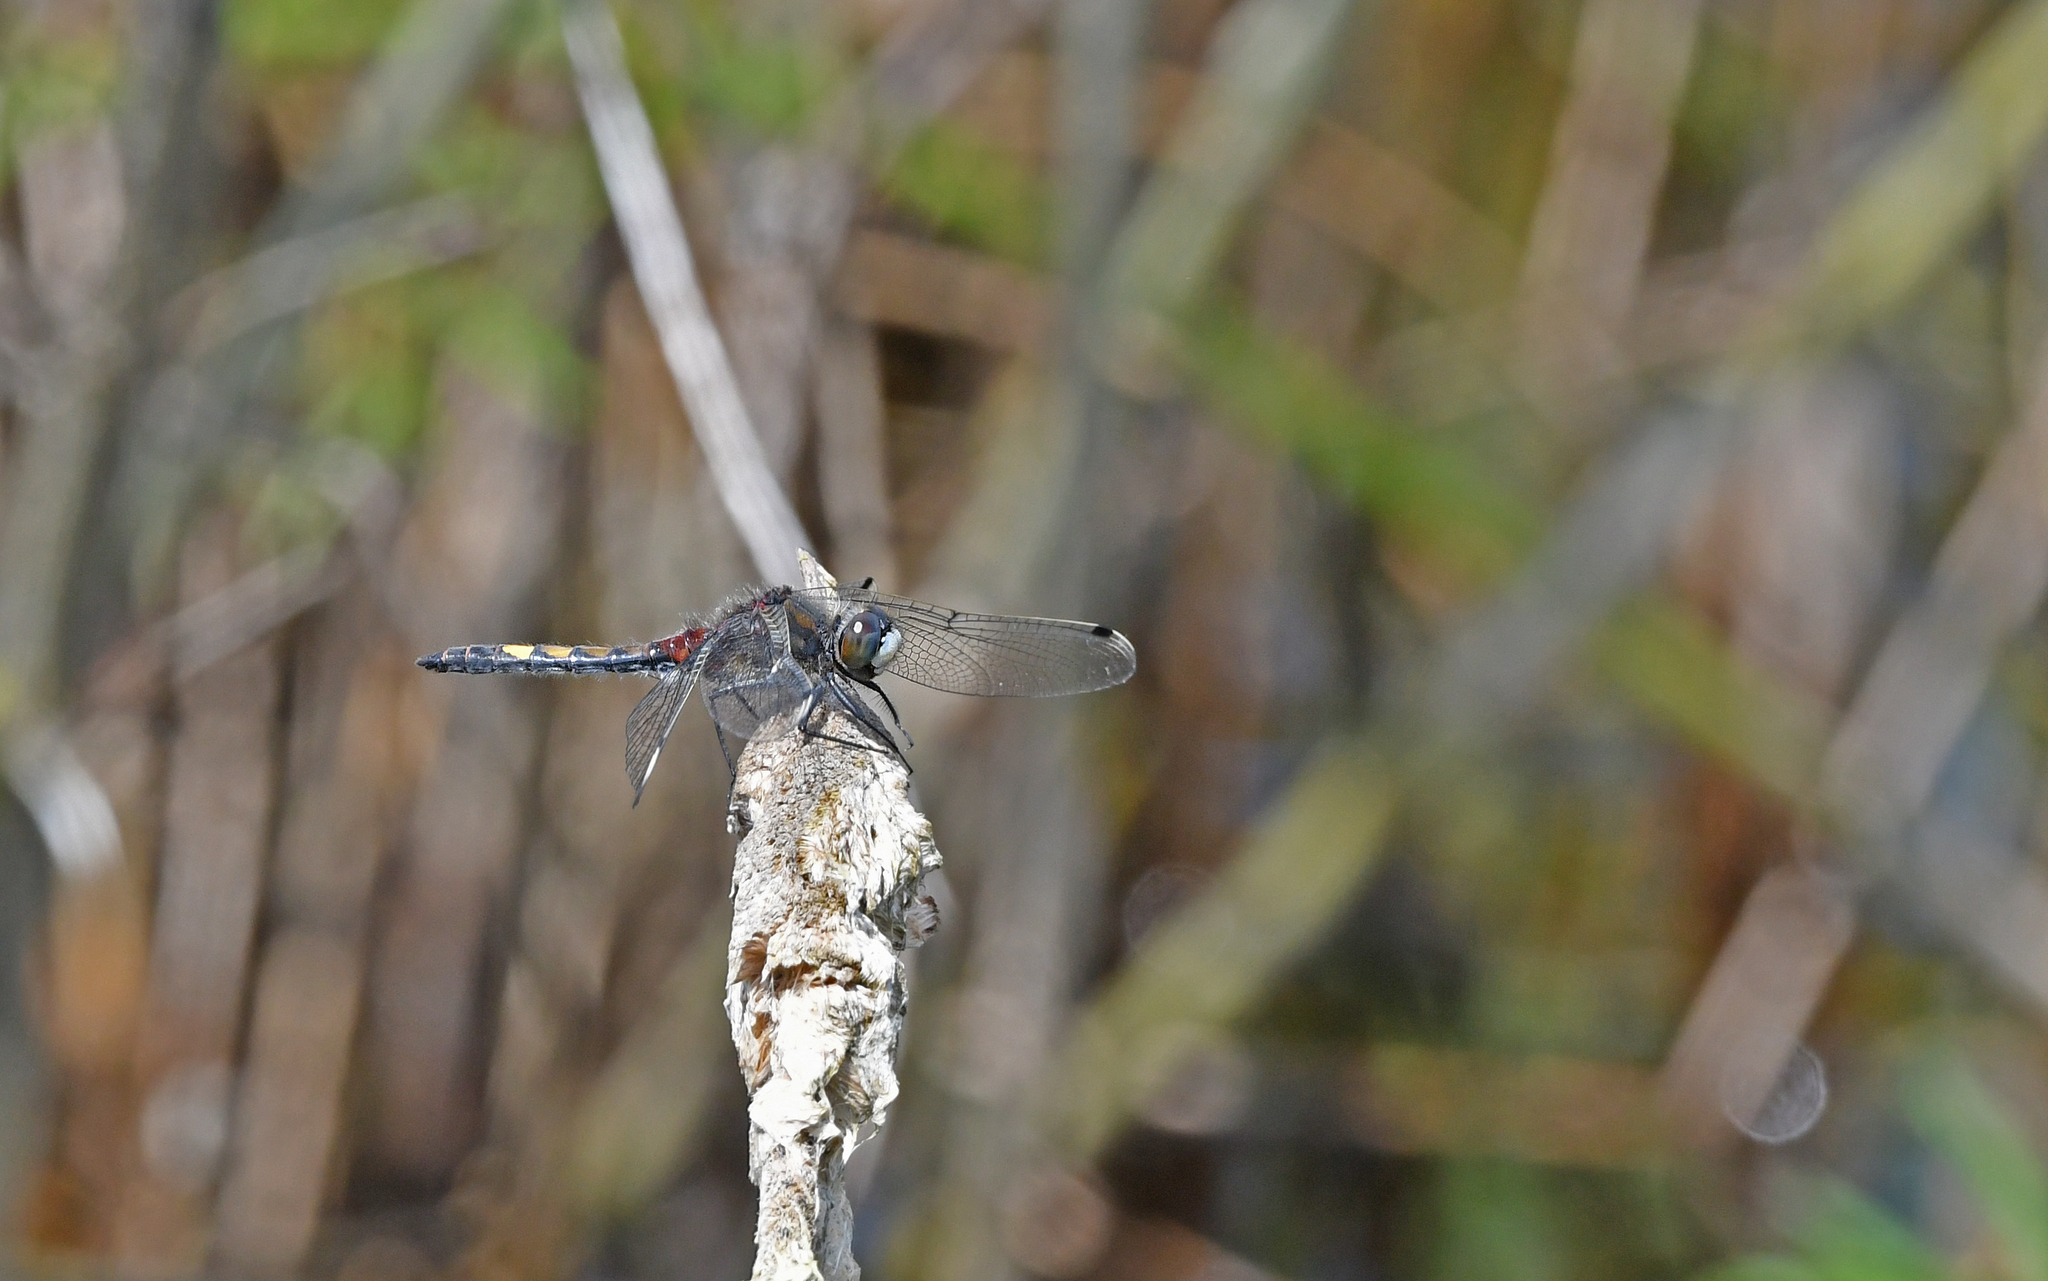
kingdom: Animalia
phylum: Arthropoda
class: Insecta
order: Odonata
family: Libellulidae
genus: Leucorrhinia
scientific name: Leucorrhinia pectoralis
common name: Yellow-spotted whiteface
